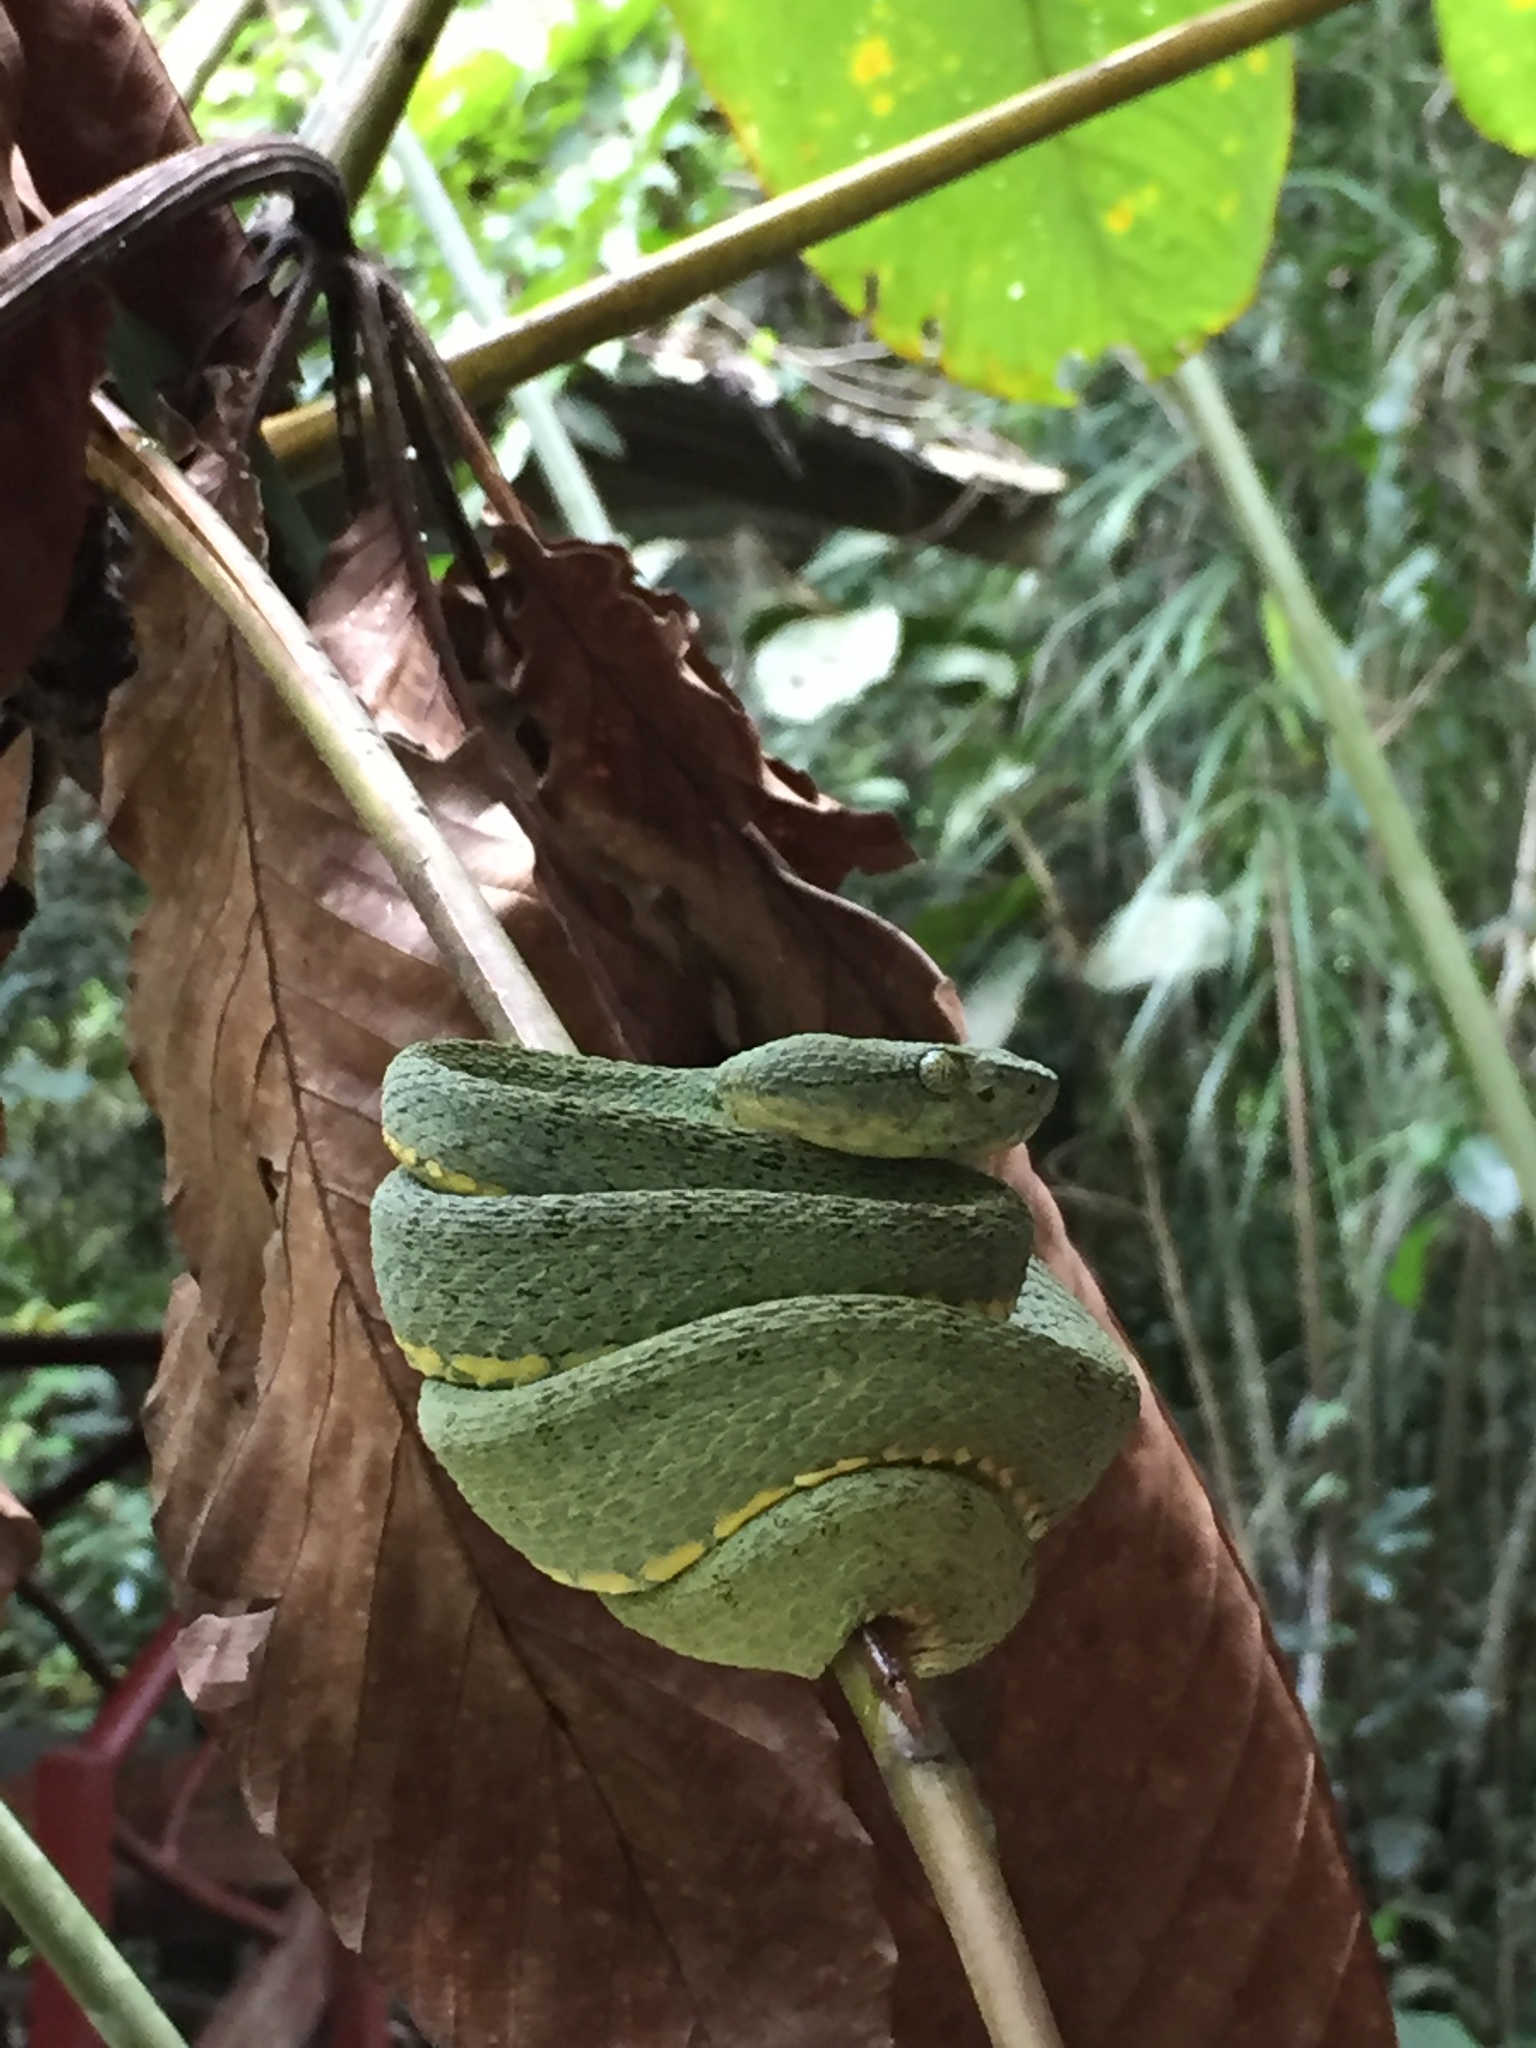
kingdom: Animalia
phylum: Chordata
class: Squamata
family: Viperidae
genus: Bothrops
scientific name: Bothrops bilineatus
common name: Green jararaca
